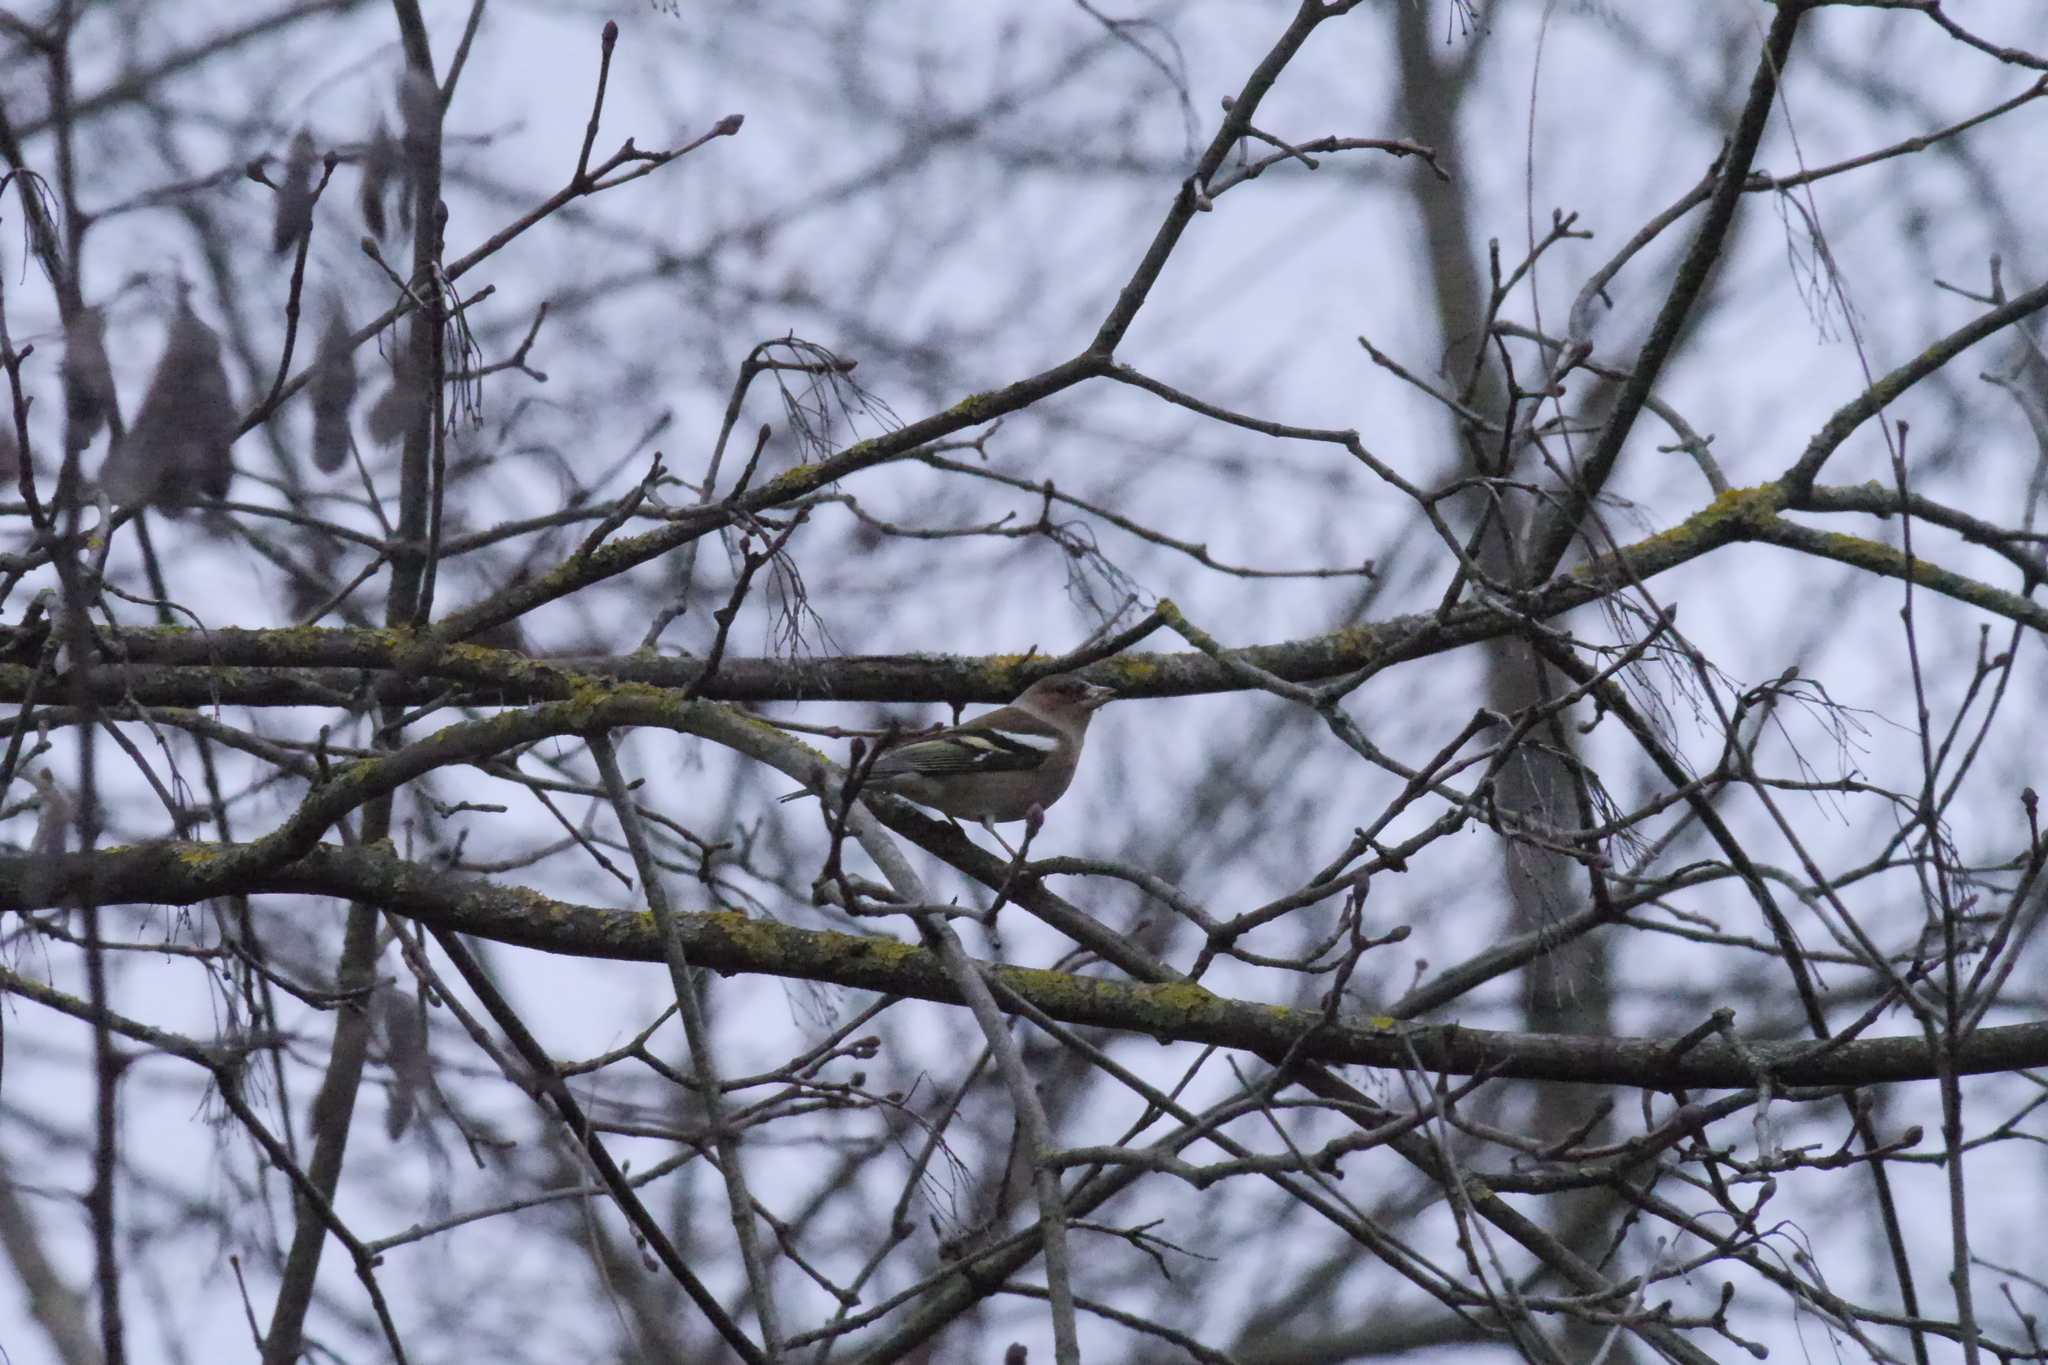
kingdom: Animalia
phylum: Chordata
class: Aves
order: Passeriformes
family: Fringillidae
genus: Fringilla
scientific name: Fringilla coelebs
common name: Common chaffinch
